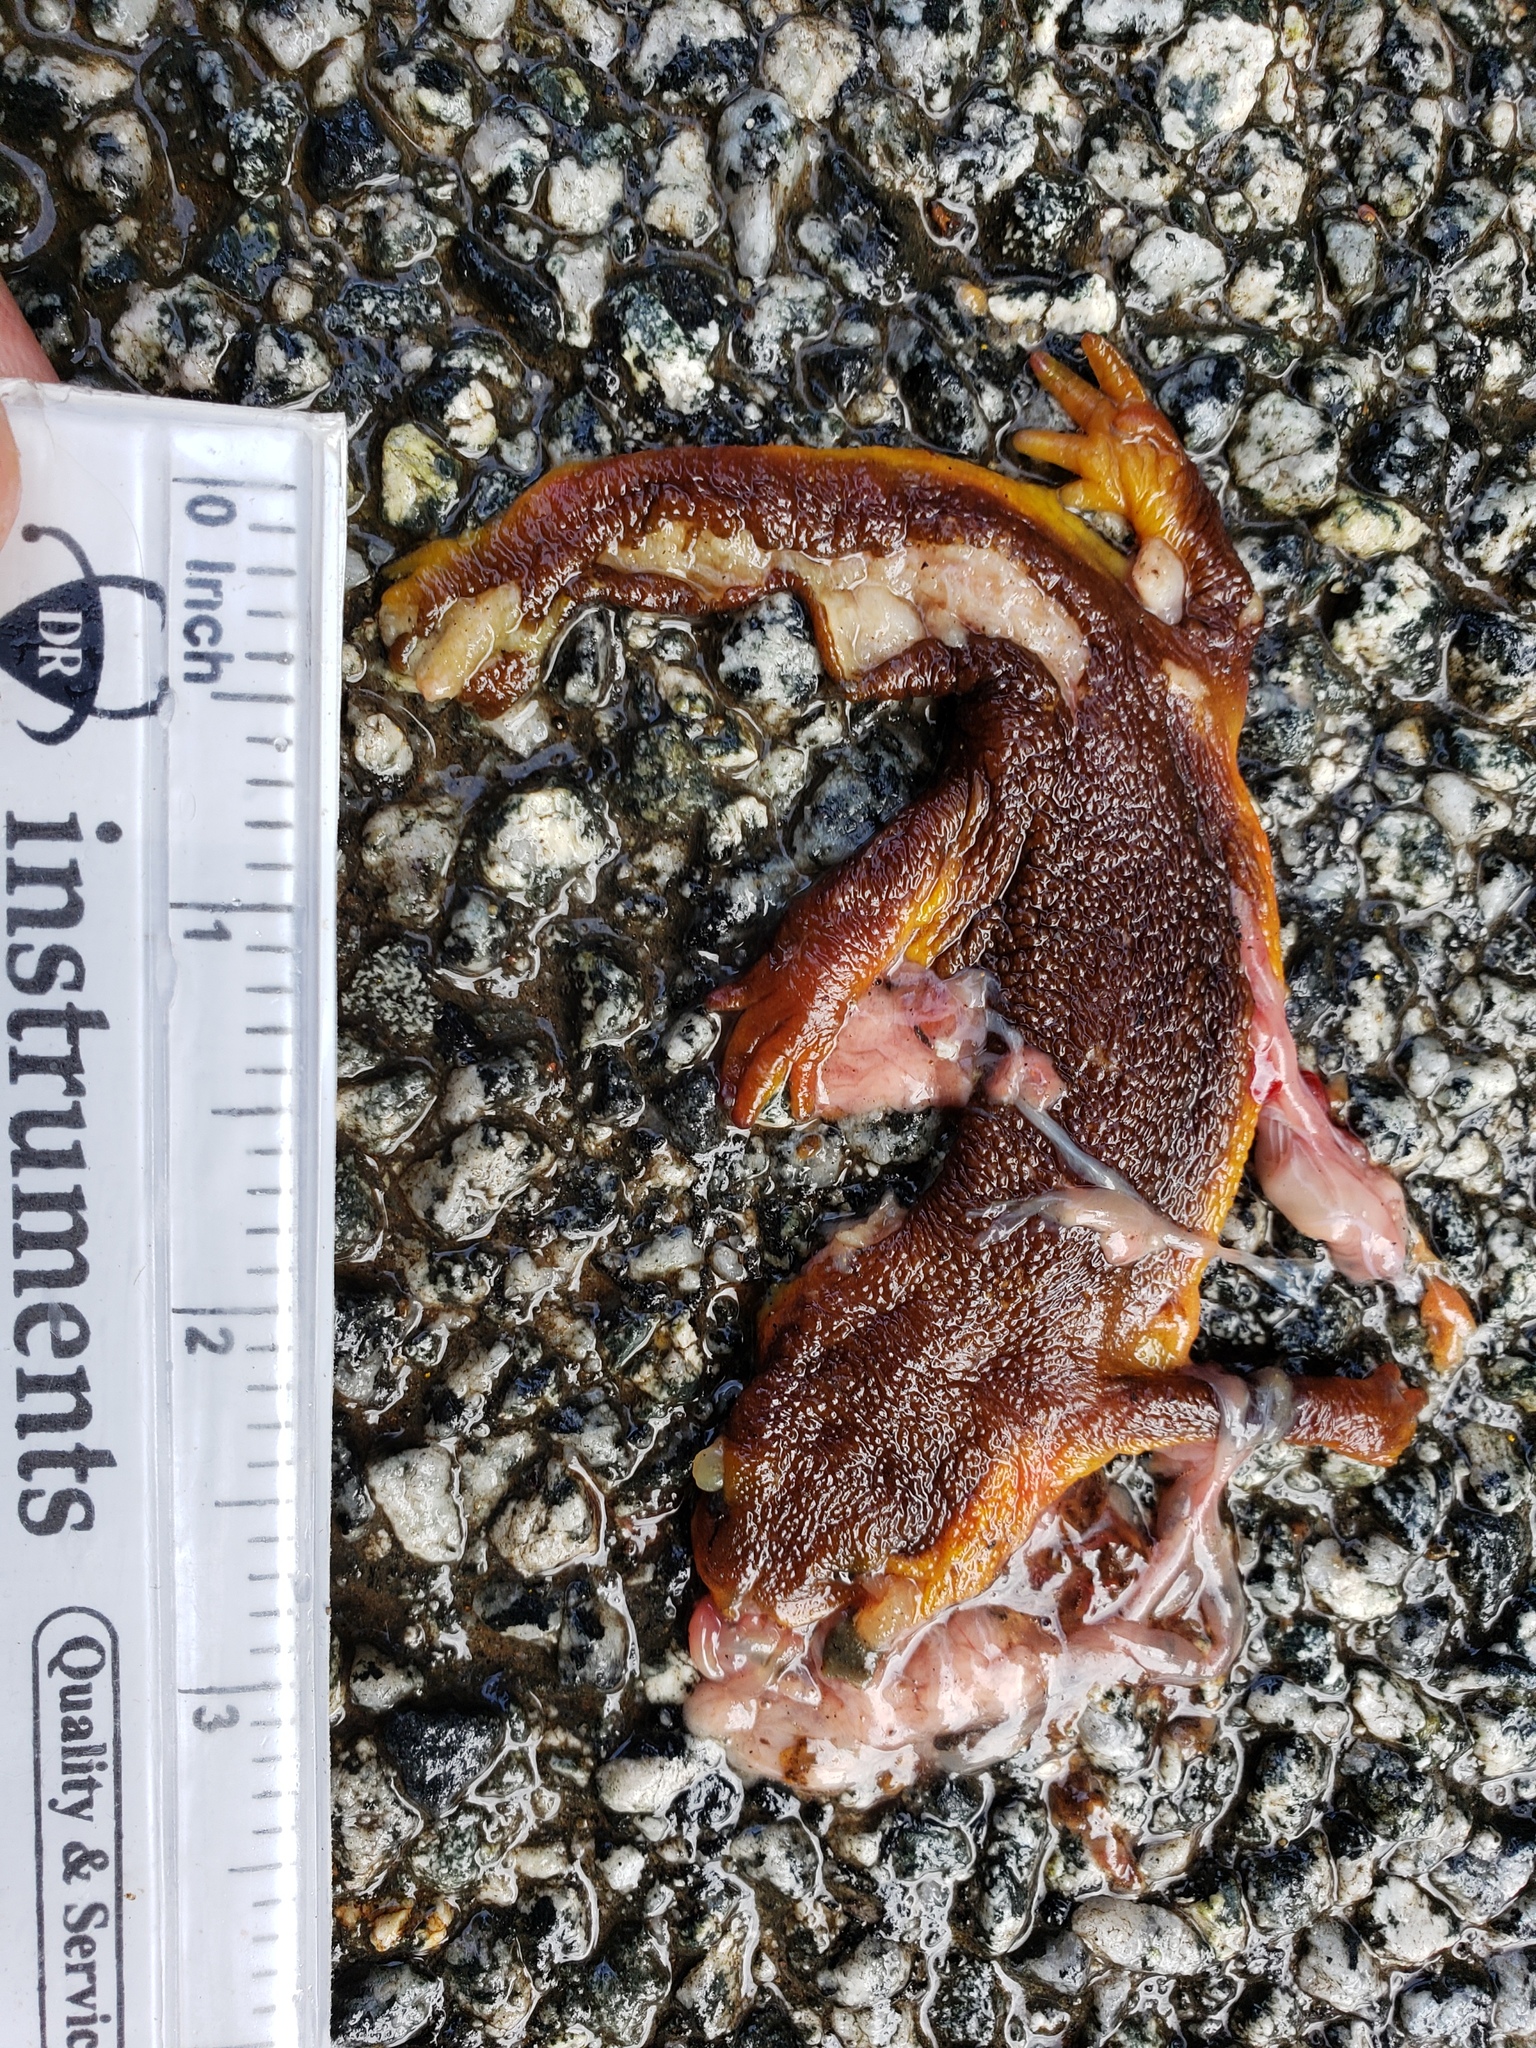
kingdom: Animalia
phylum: Chordata
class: Amphibia
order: Caudata
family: Salamandridae
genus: Taricha
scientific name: Taricha
